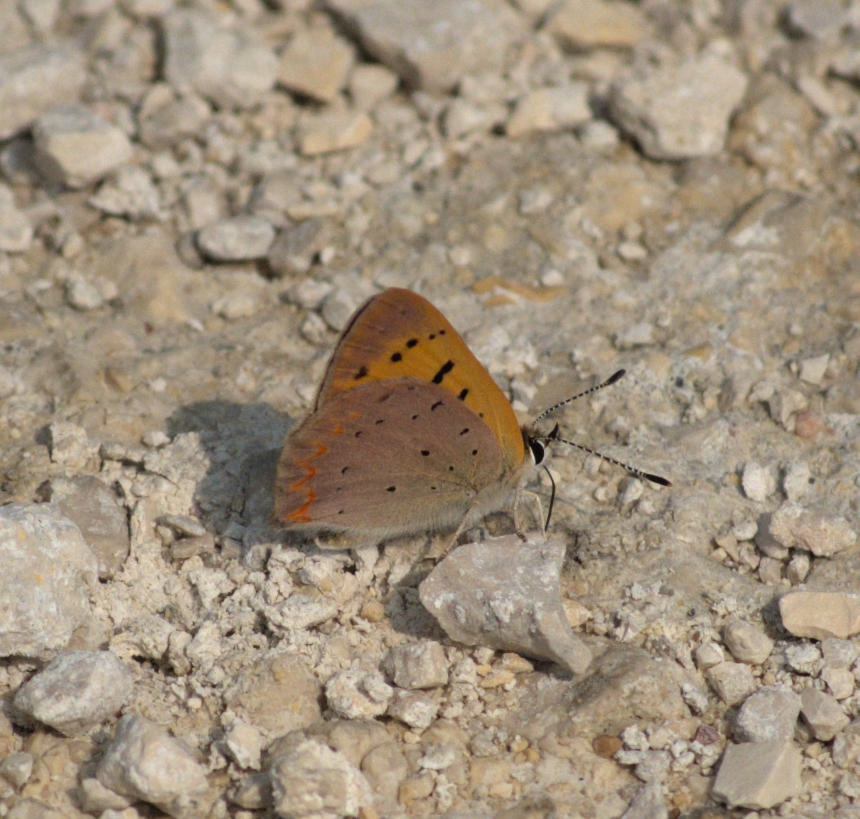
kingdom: Animalia
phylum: Arthropoda
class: Insecta
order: Lepidoptera
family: Lycaenidae
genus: Tharsalea
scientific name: Tharsalea helloides
